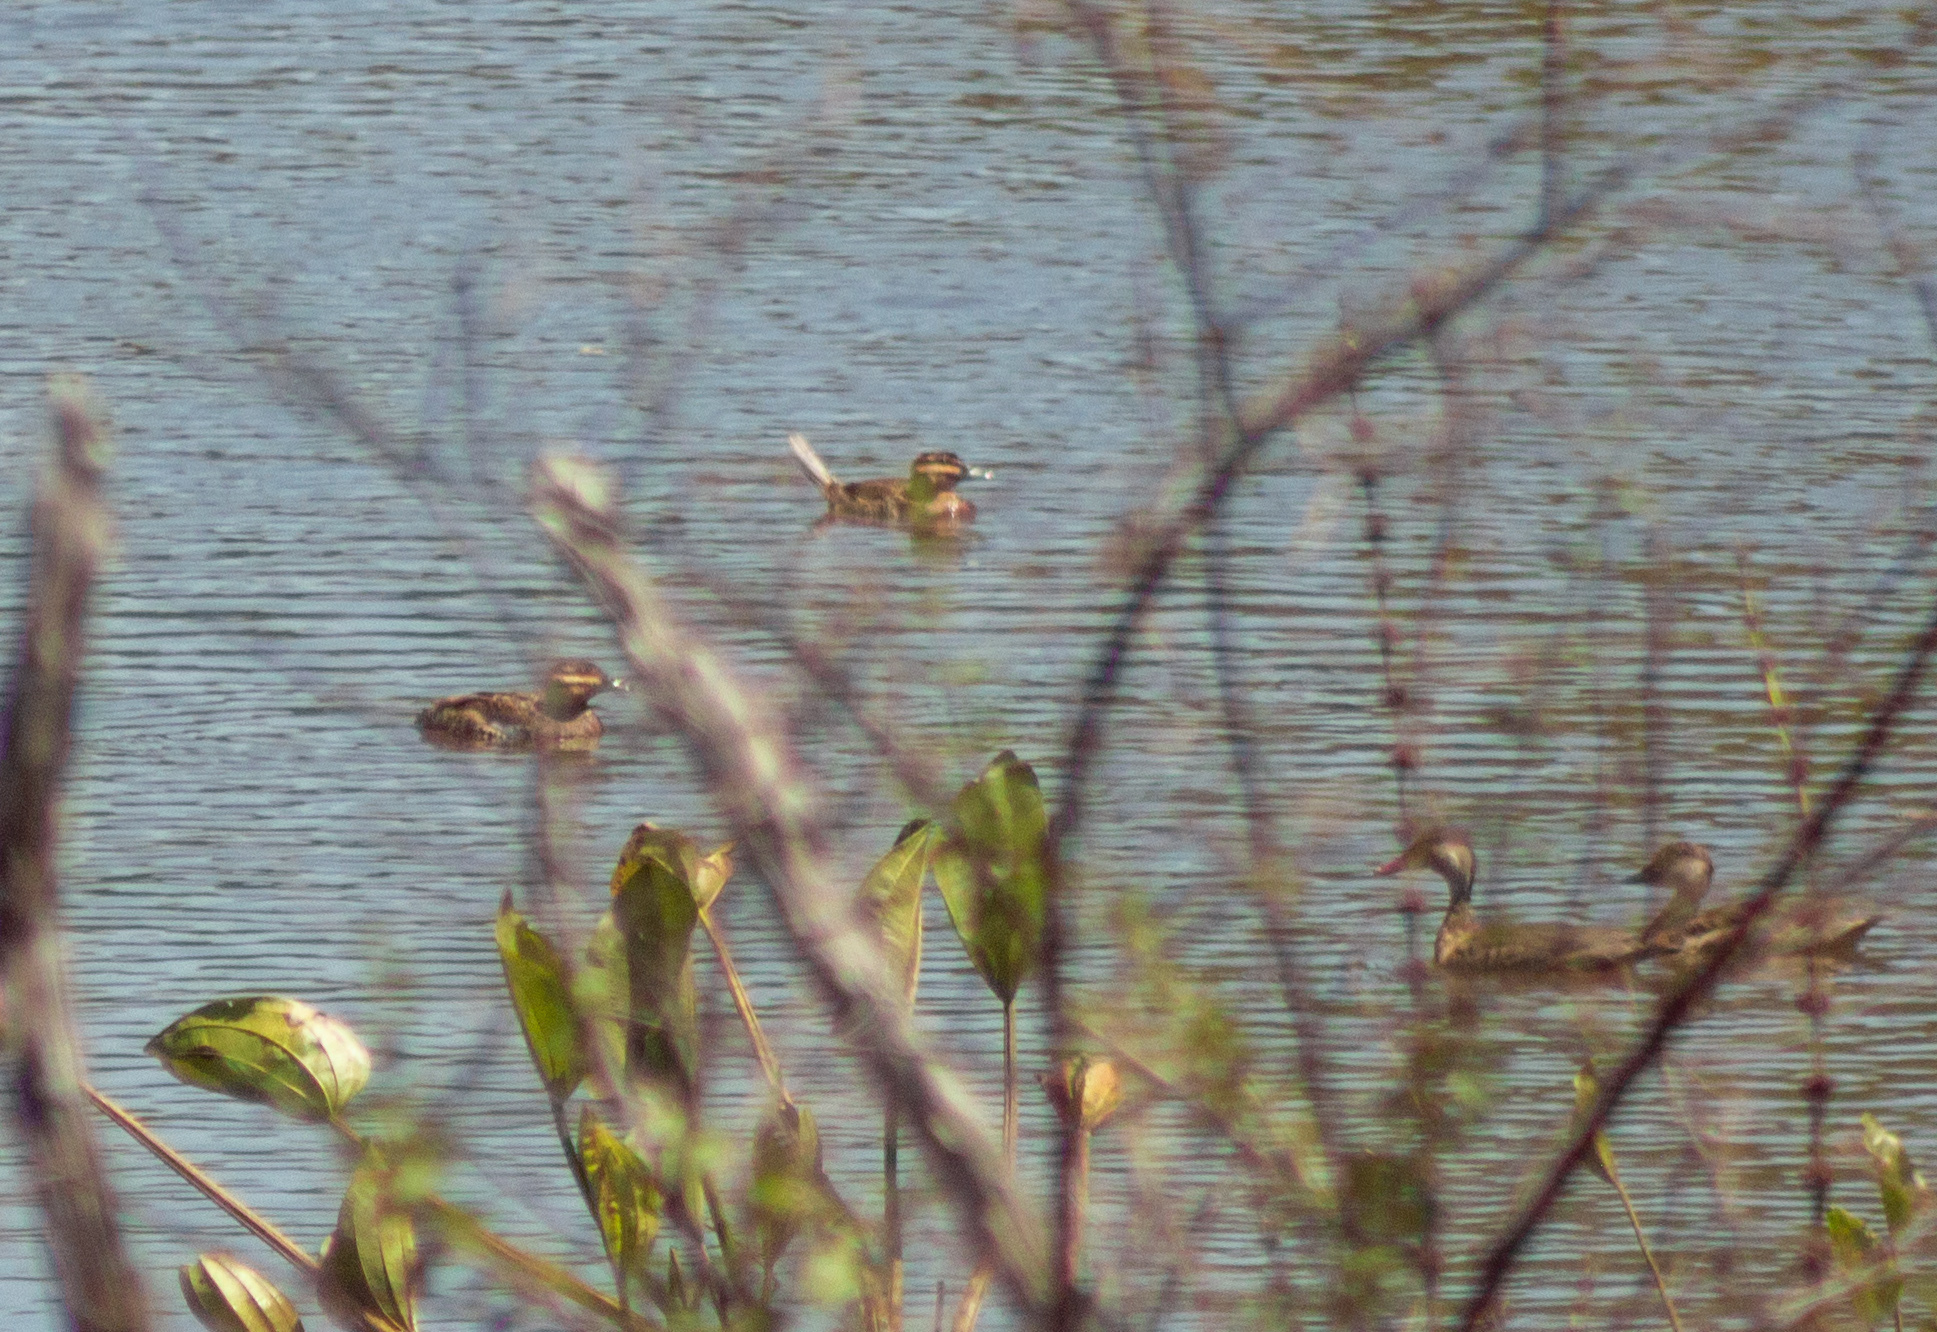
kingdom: Animalia
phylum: Chordata
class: Aves
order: Anseriformes
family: Anatidae
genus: Nomonyx
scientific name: Nomonyx dominicus
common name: Masked duck
